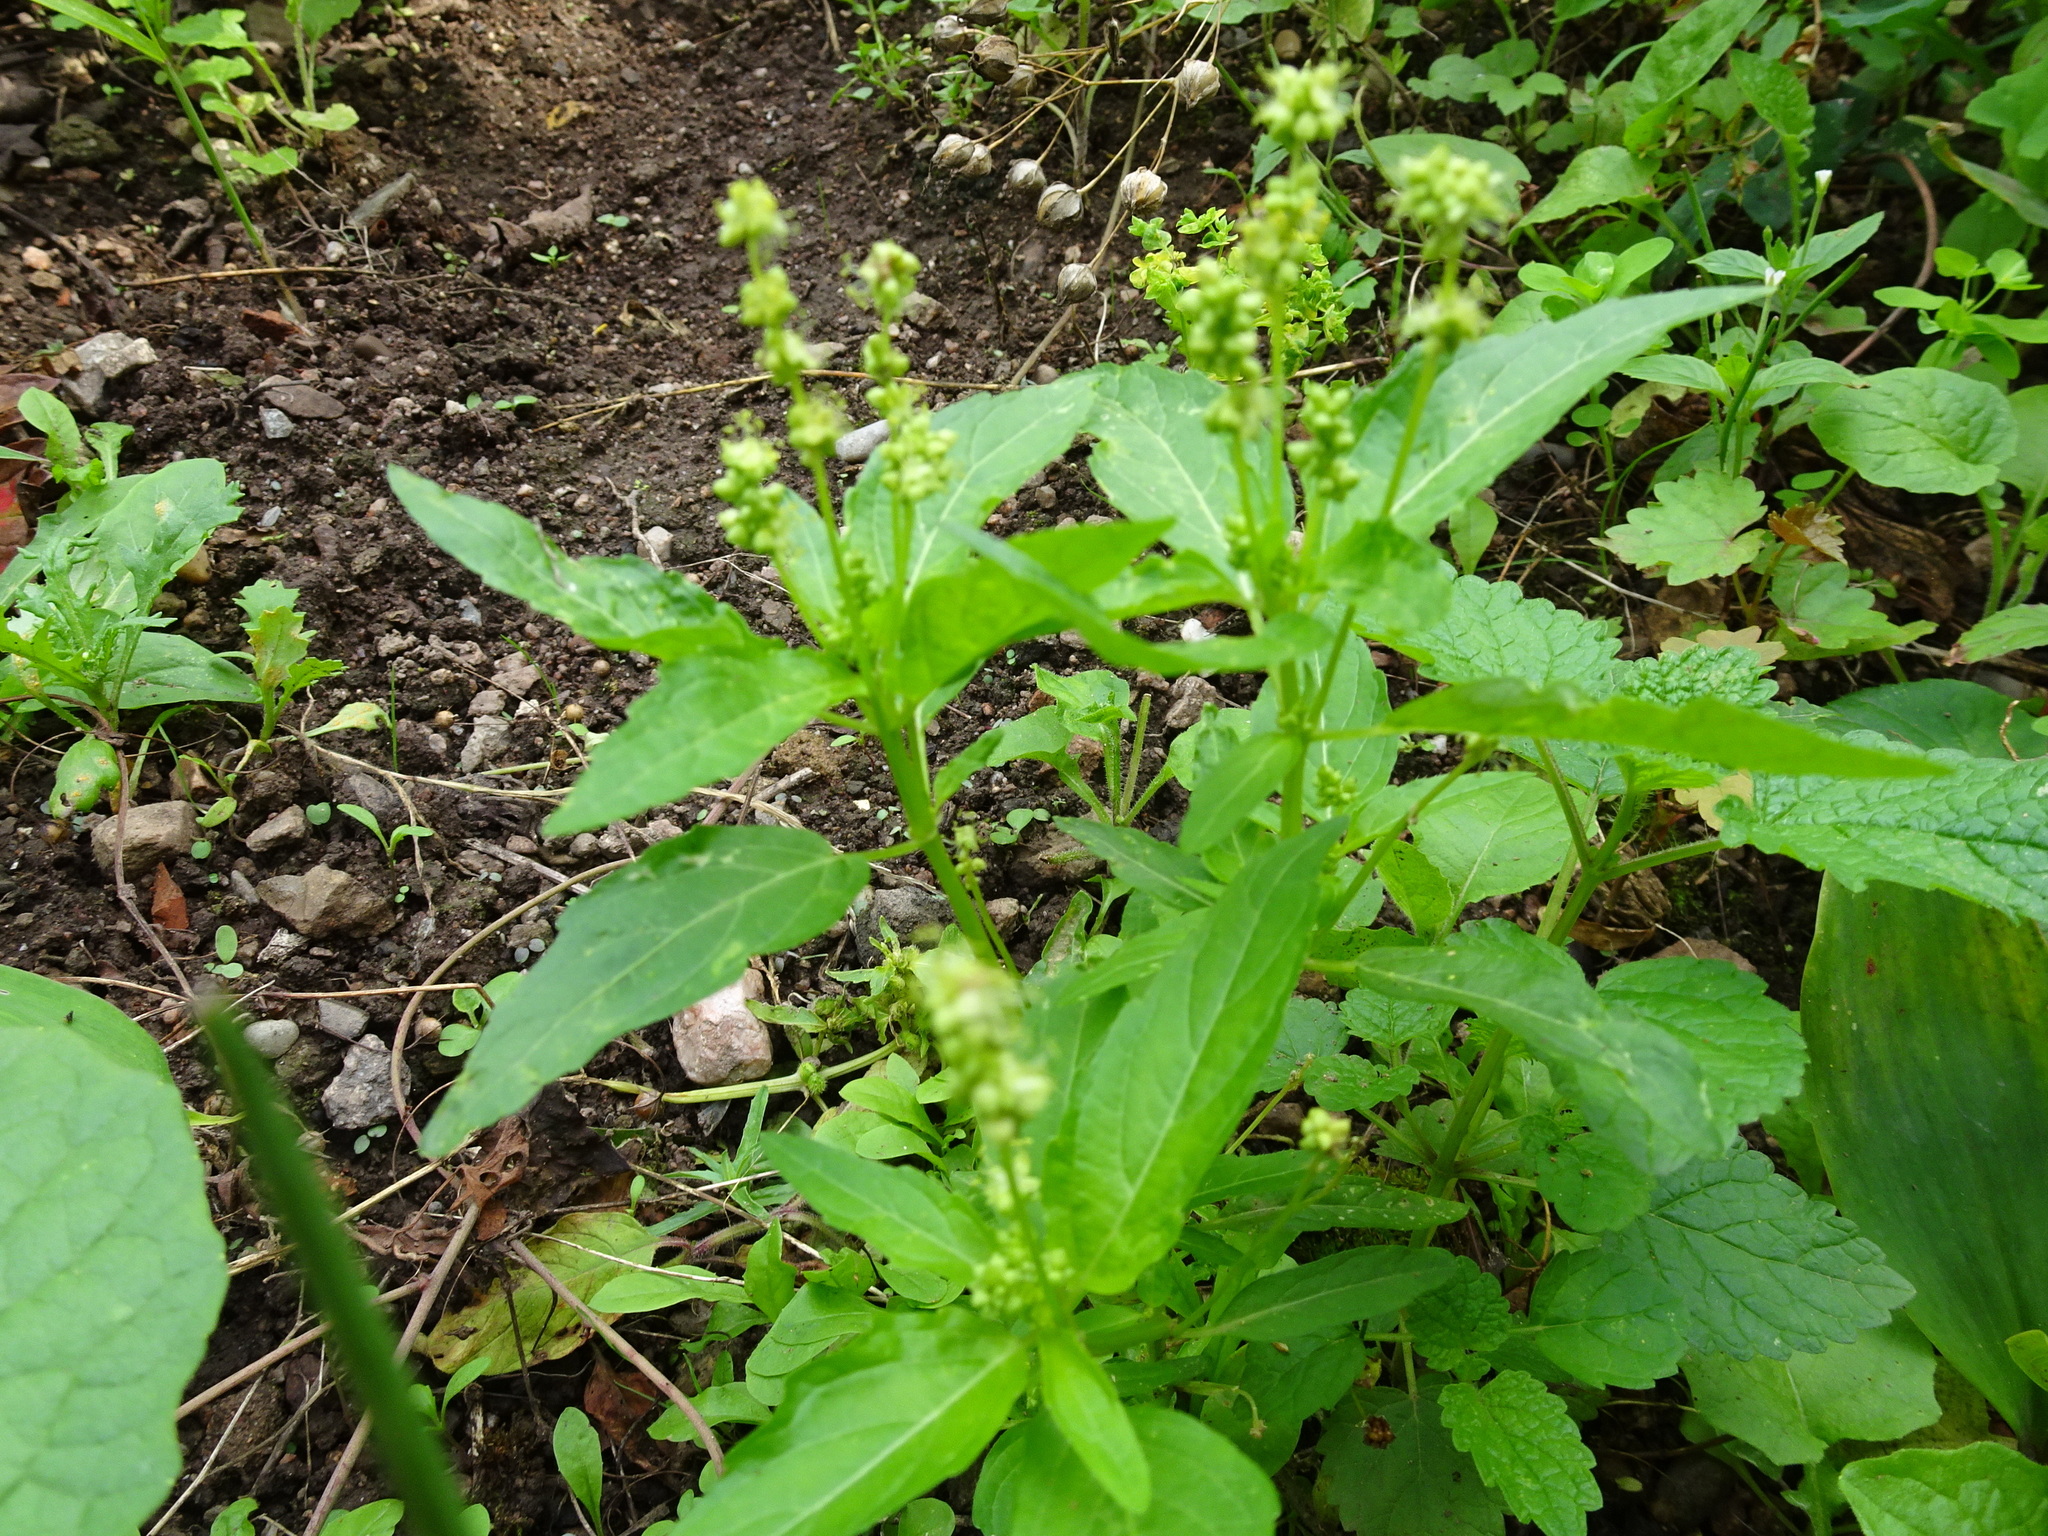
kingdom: Plantae
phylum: Tracheophyta
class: Magnoliopsida
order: Malpighiales
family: Euphorbiaceae
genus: Mercurialis
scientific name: Mercurialis annua
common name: Annual mercury
